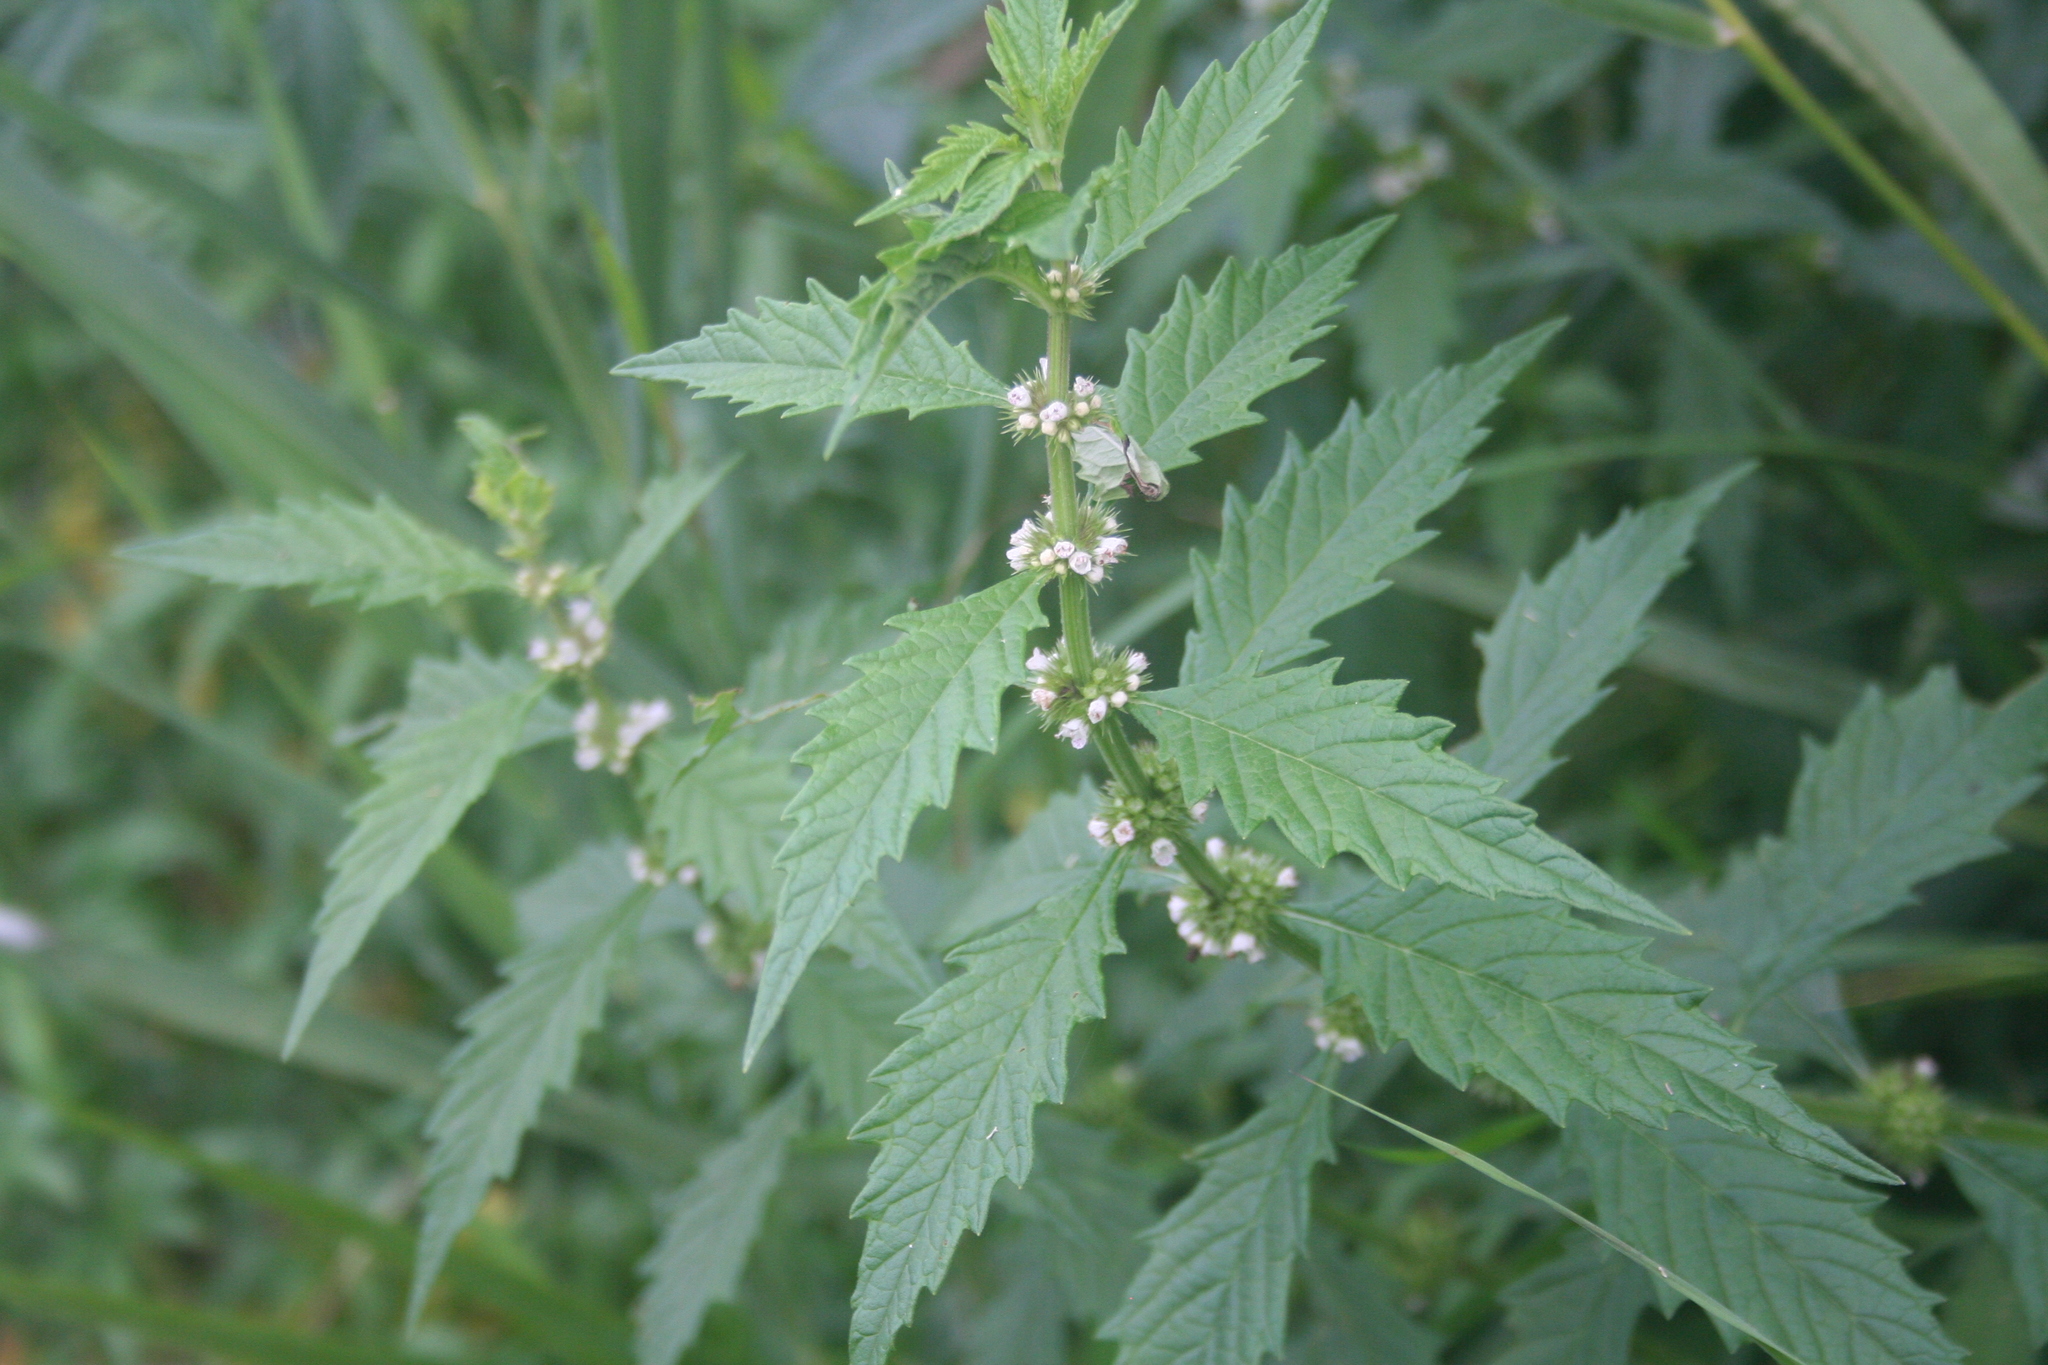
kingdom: Plantae
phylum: Tracheophyta
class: Magnoliopsida
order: Lamiales
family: Lamiaceae
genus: Lycopus
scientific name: Lycopus europaeus
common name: European bugleweed
